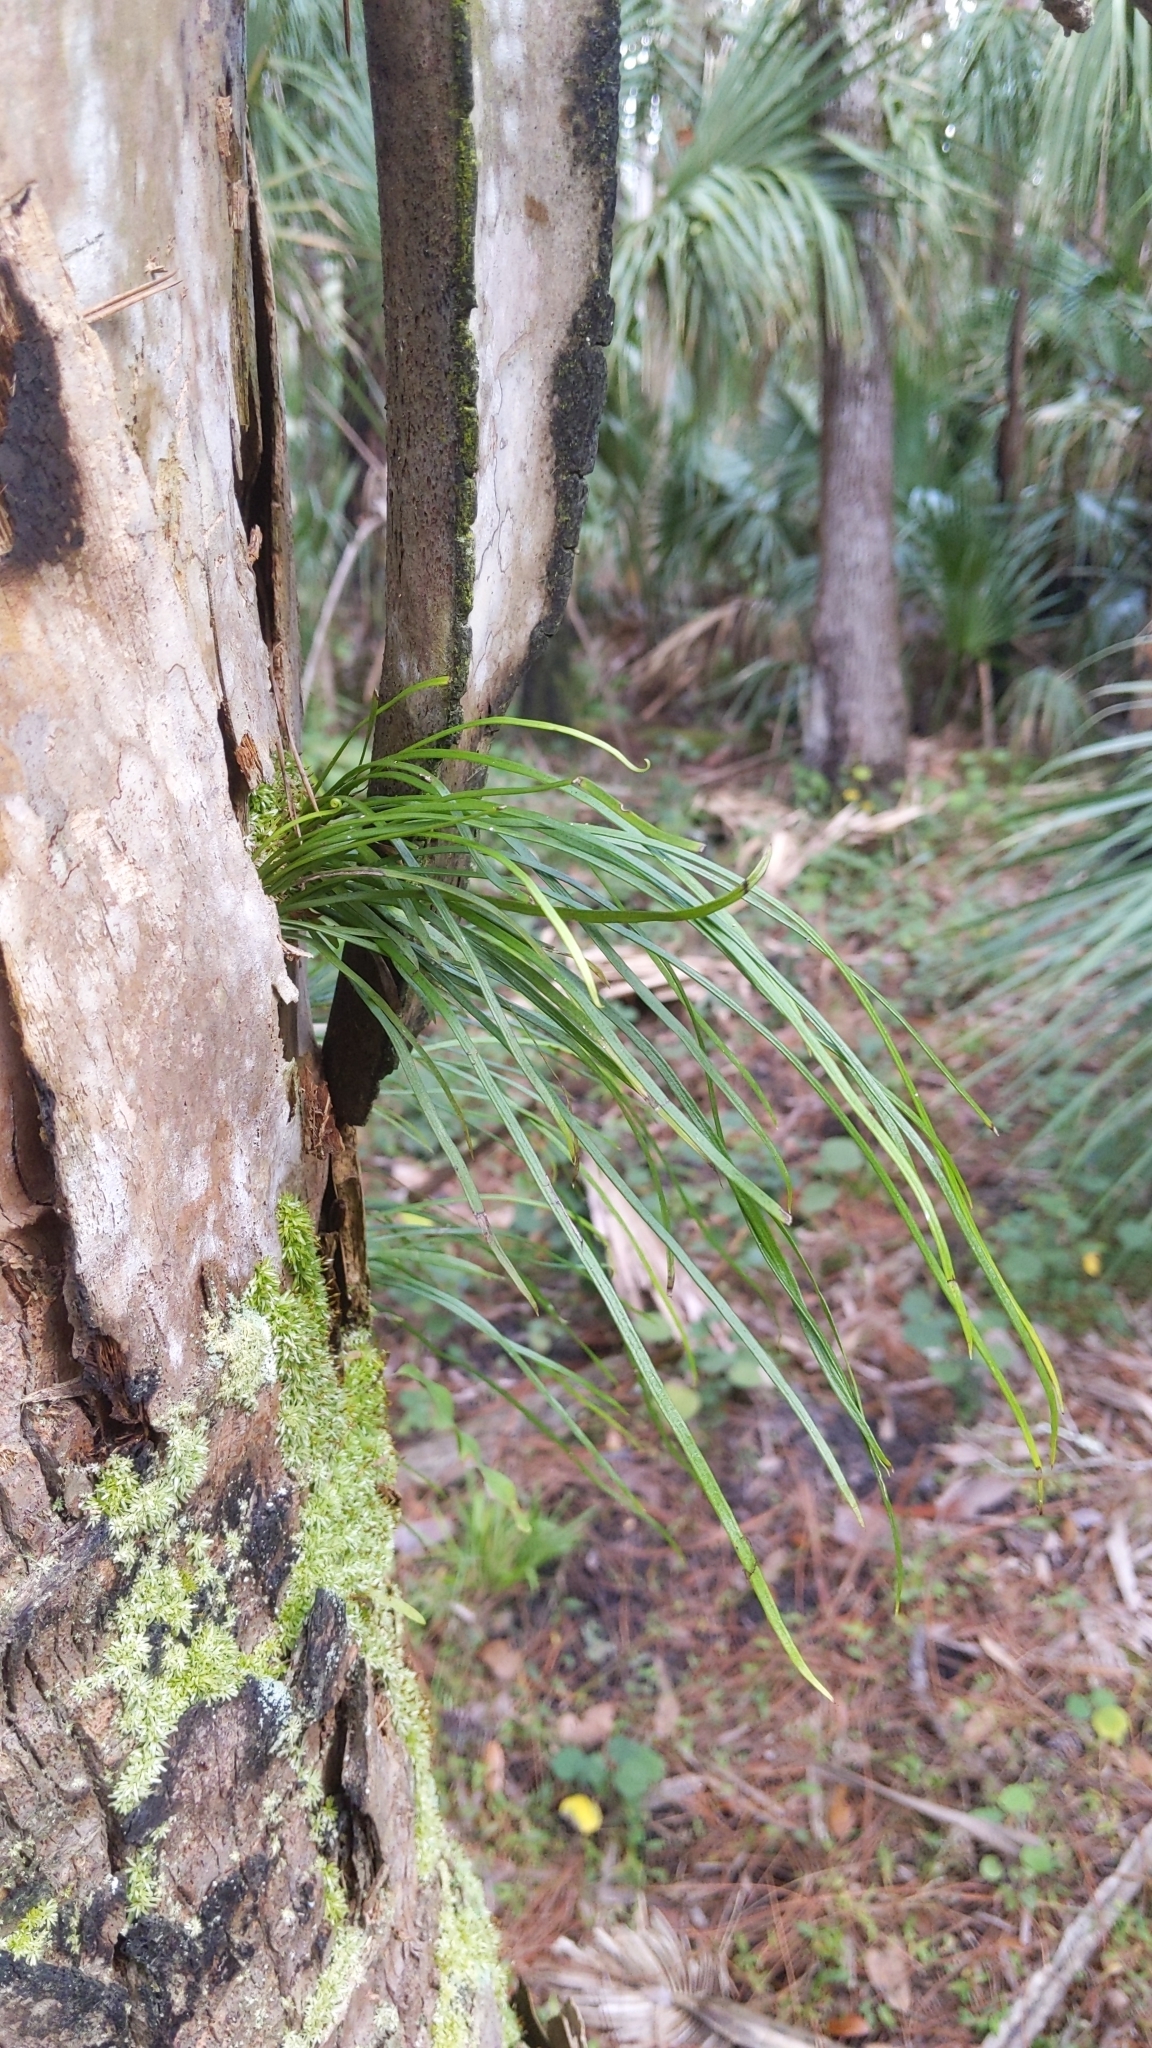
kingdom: Plantae
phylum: Tracheophyta
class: Polypodiopsida
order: Polypodiales
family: Pteridaceae
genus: Vittaria
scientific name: Vittaria lineata
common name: Shoestring fern
